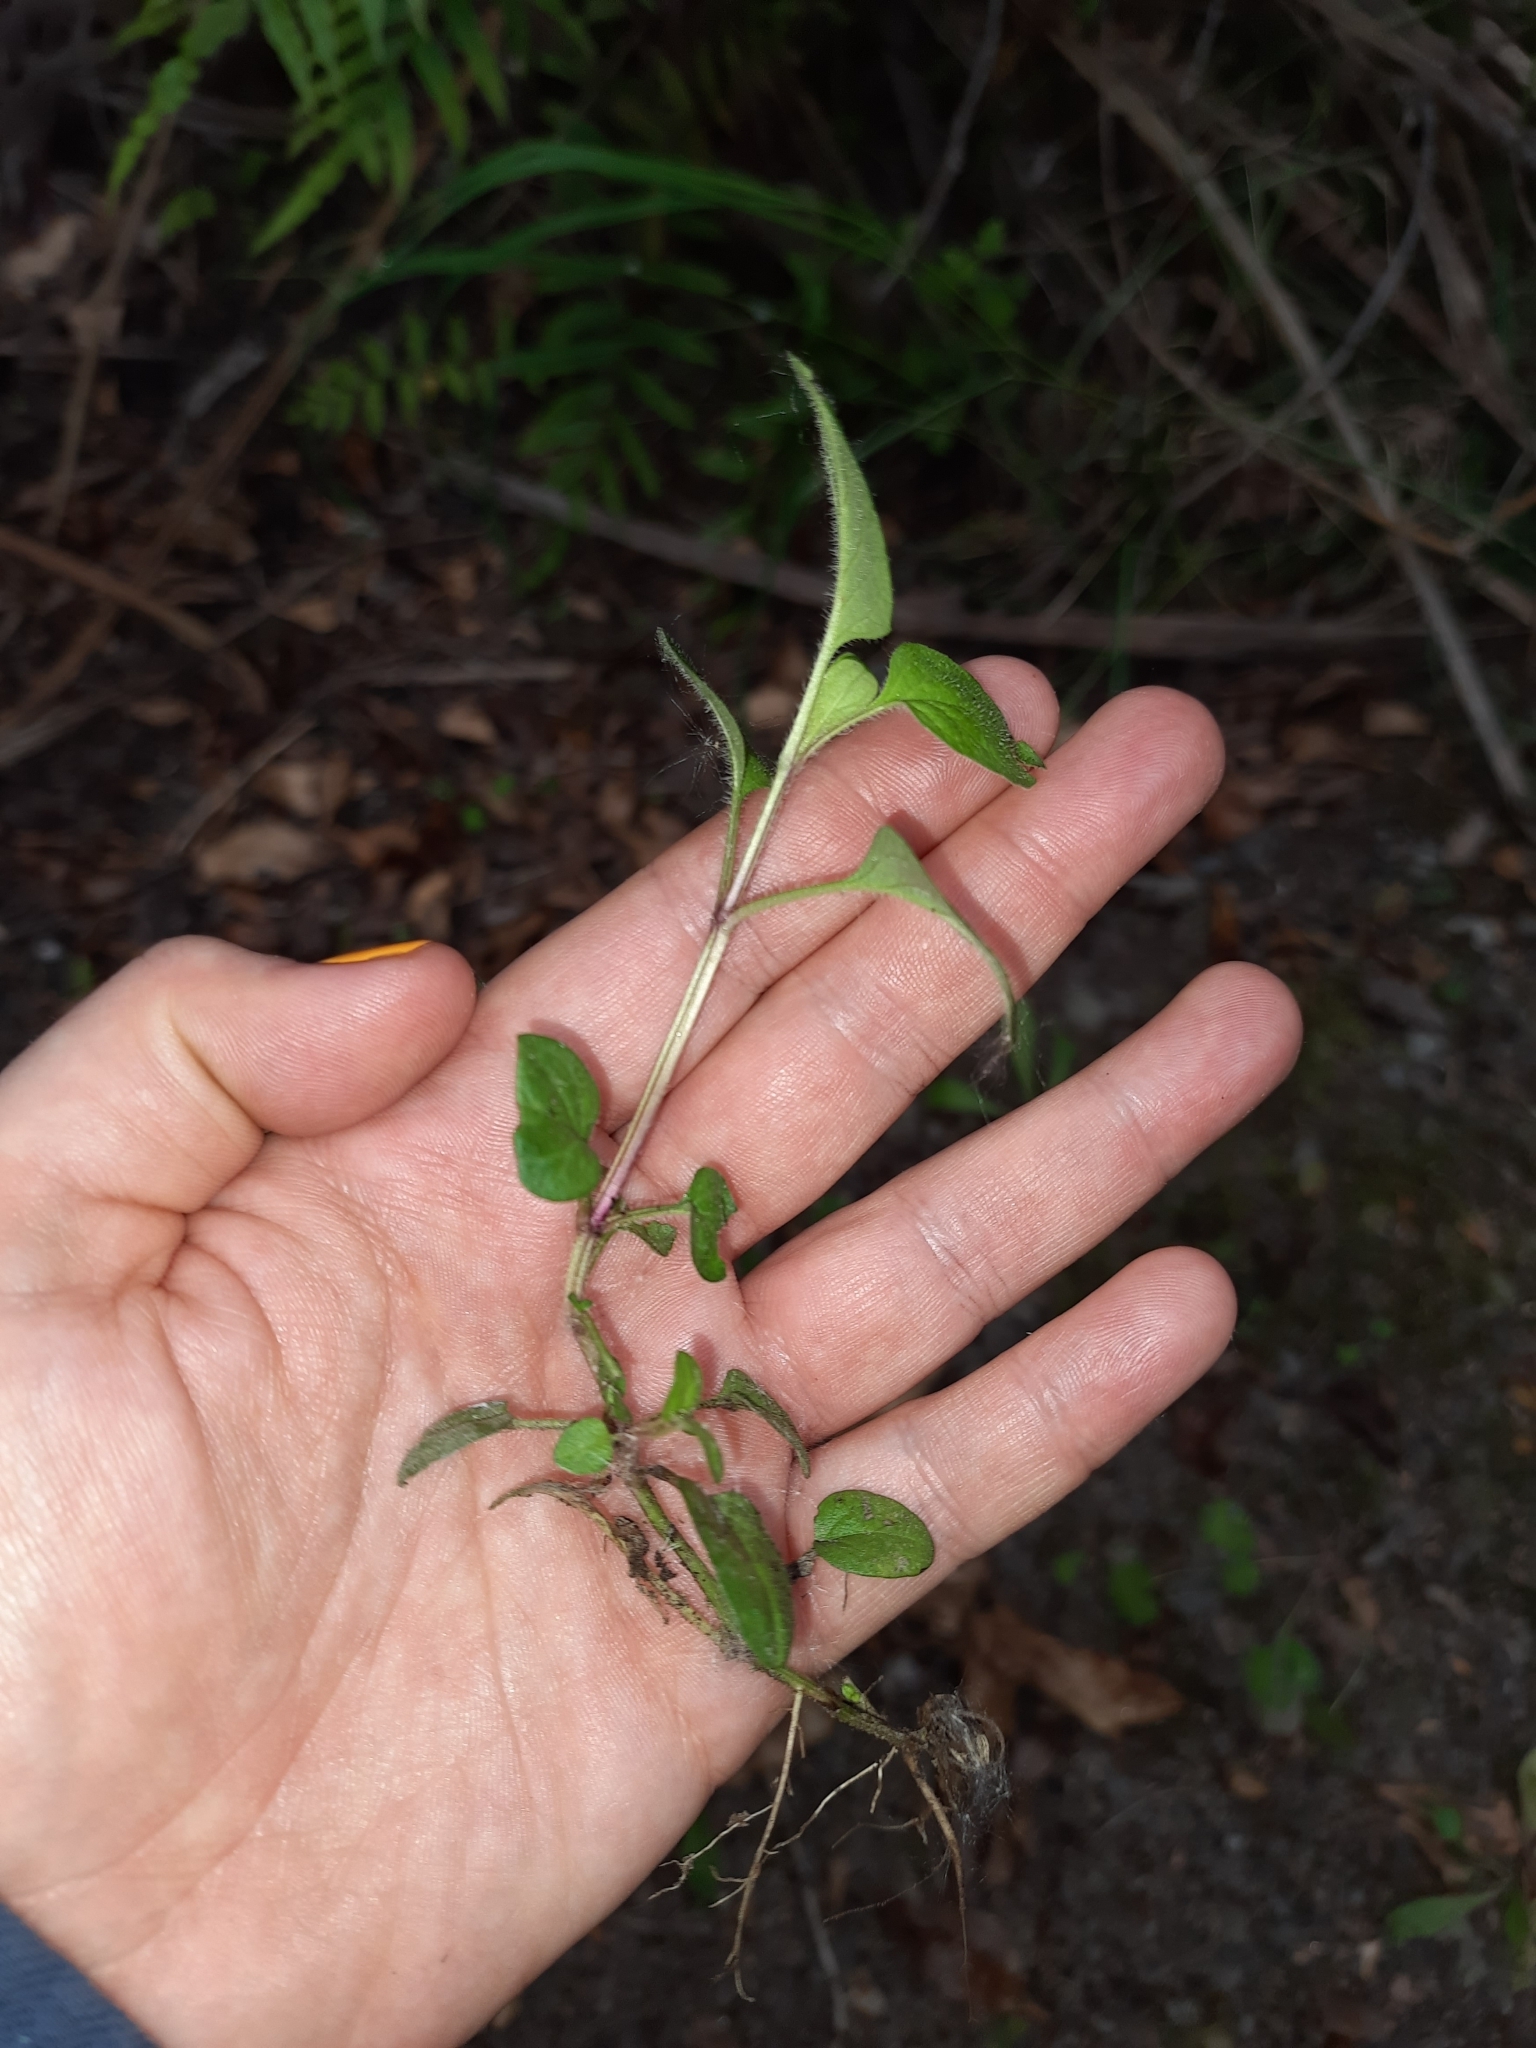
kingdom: Plantae
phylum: Tracheophyta
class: Magnoliopsida
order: Lamiales
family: Lamiaceae
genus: Prunella
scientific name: Prunella vulgaris
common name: Heal-all
